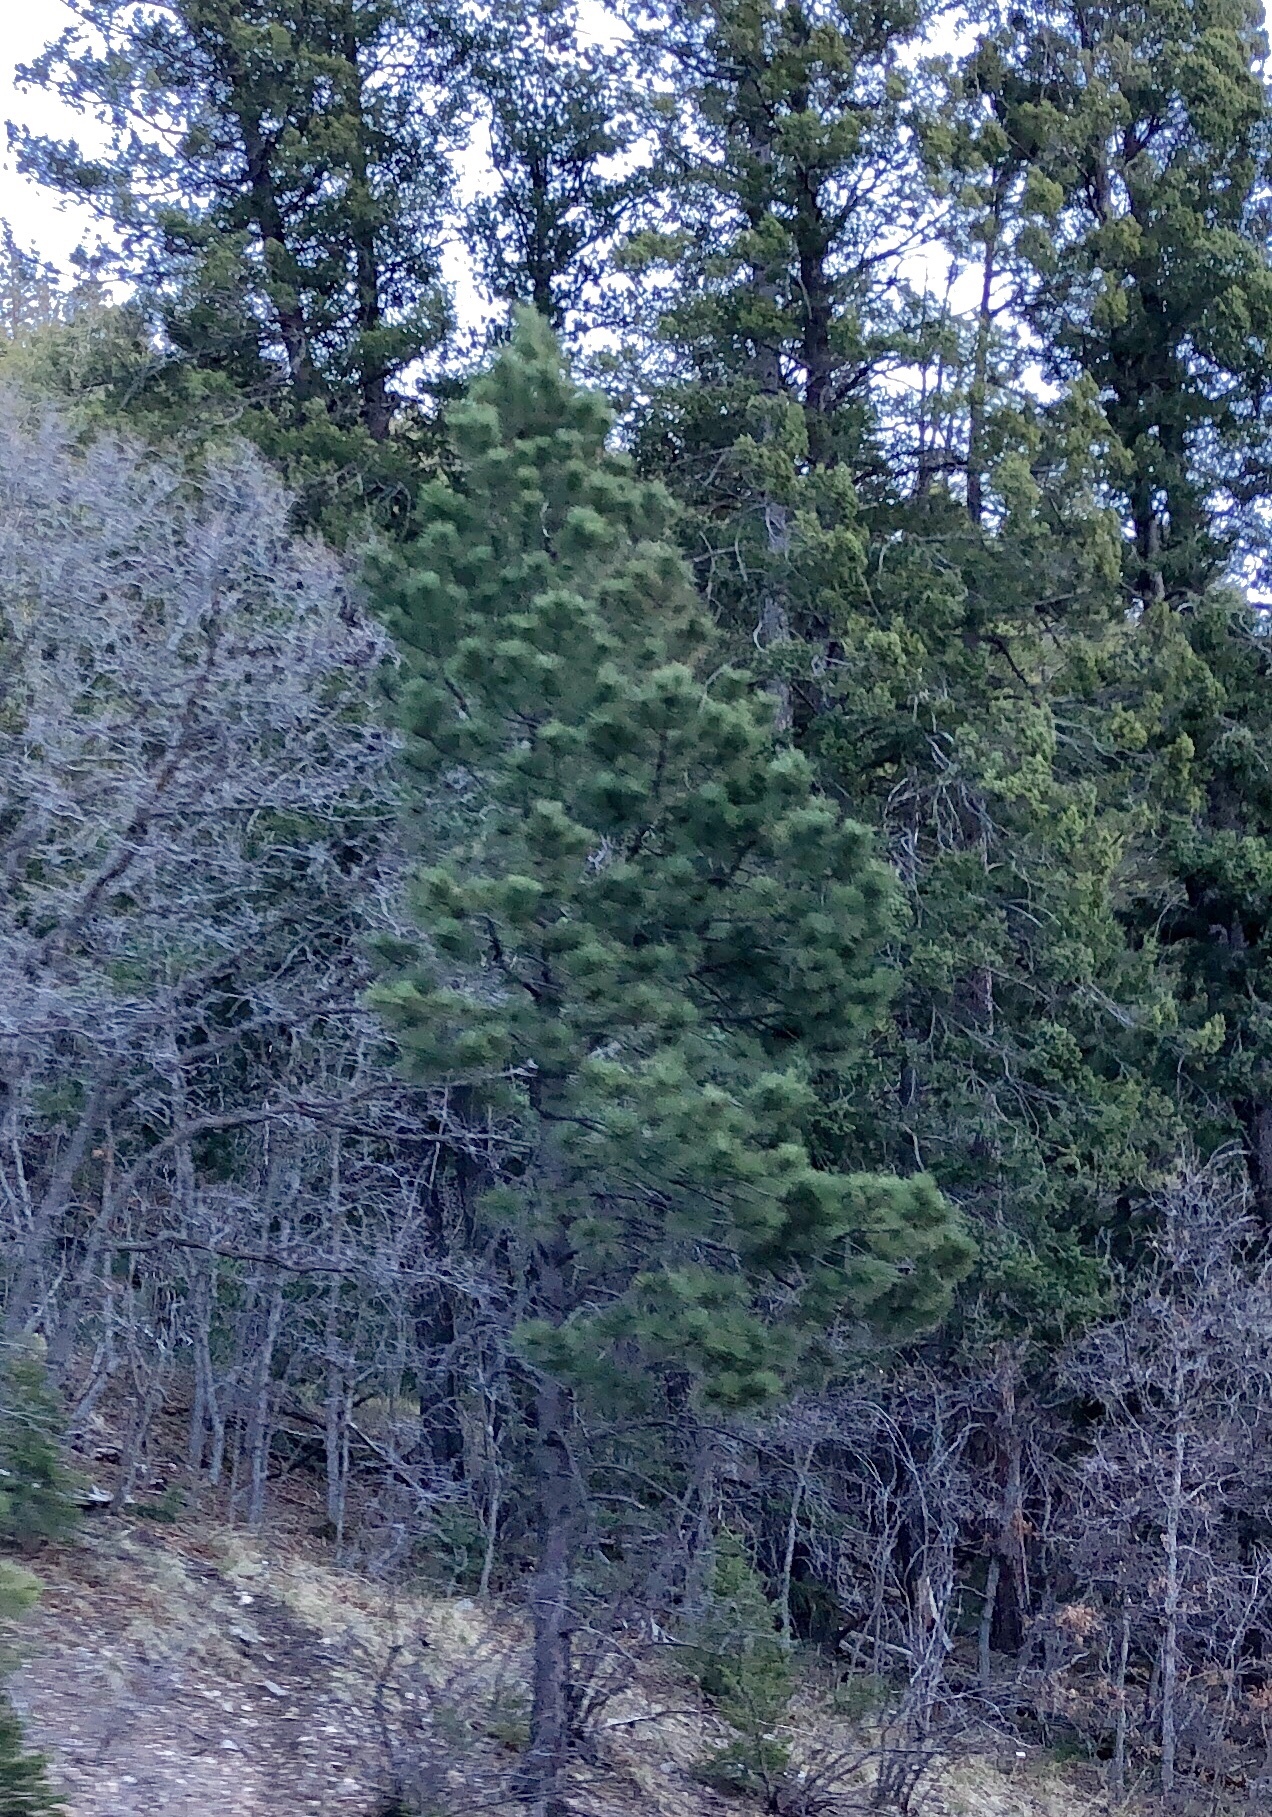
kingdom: Plantae
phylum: Tracheophyta
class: Pinopsida
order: Pinales
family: Pinaceae
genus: Pinus
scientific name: Pinus ponderosa
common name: Western yellow-pine
